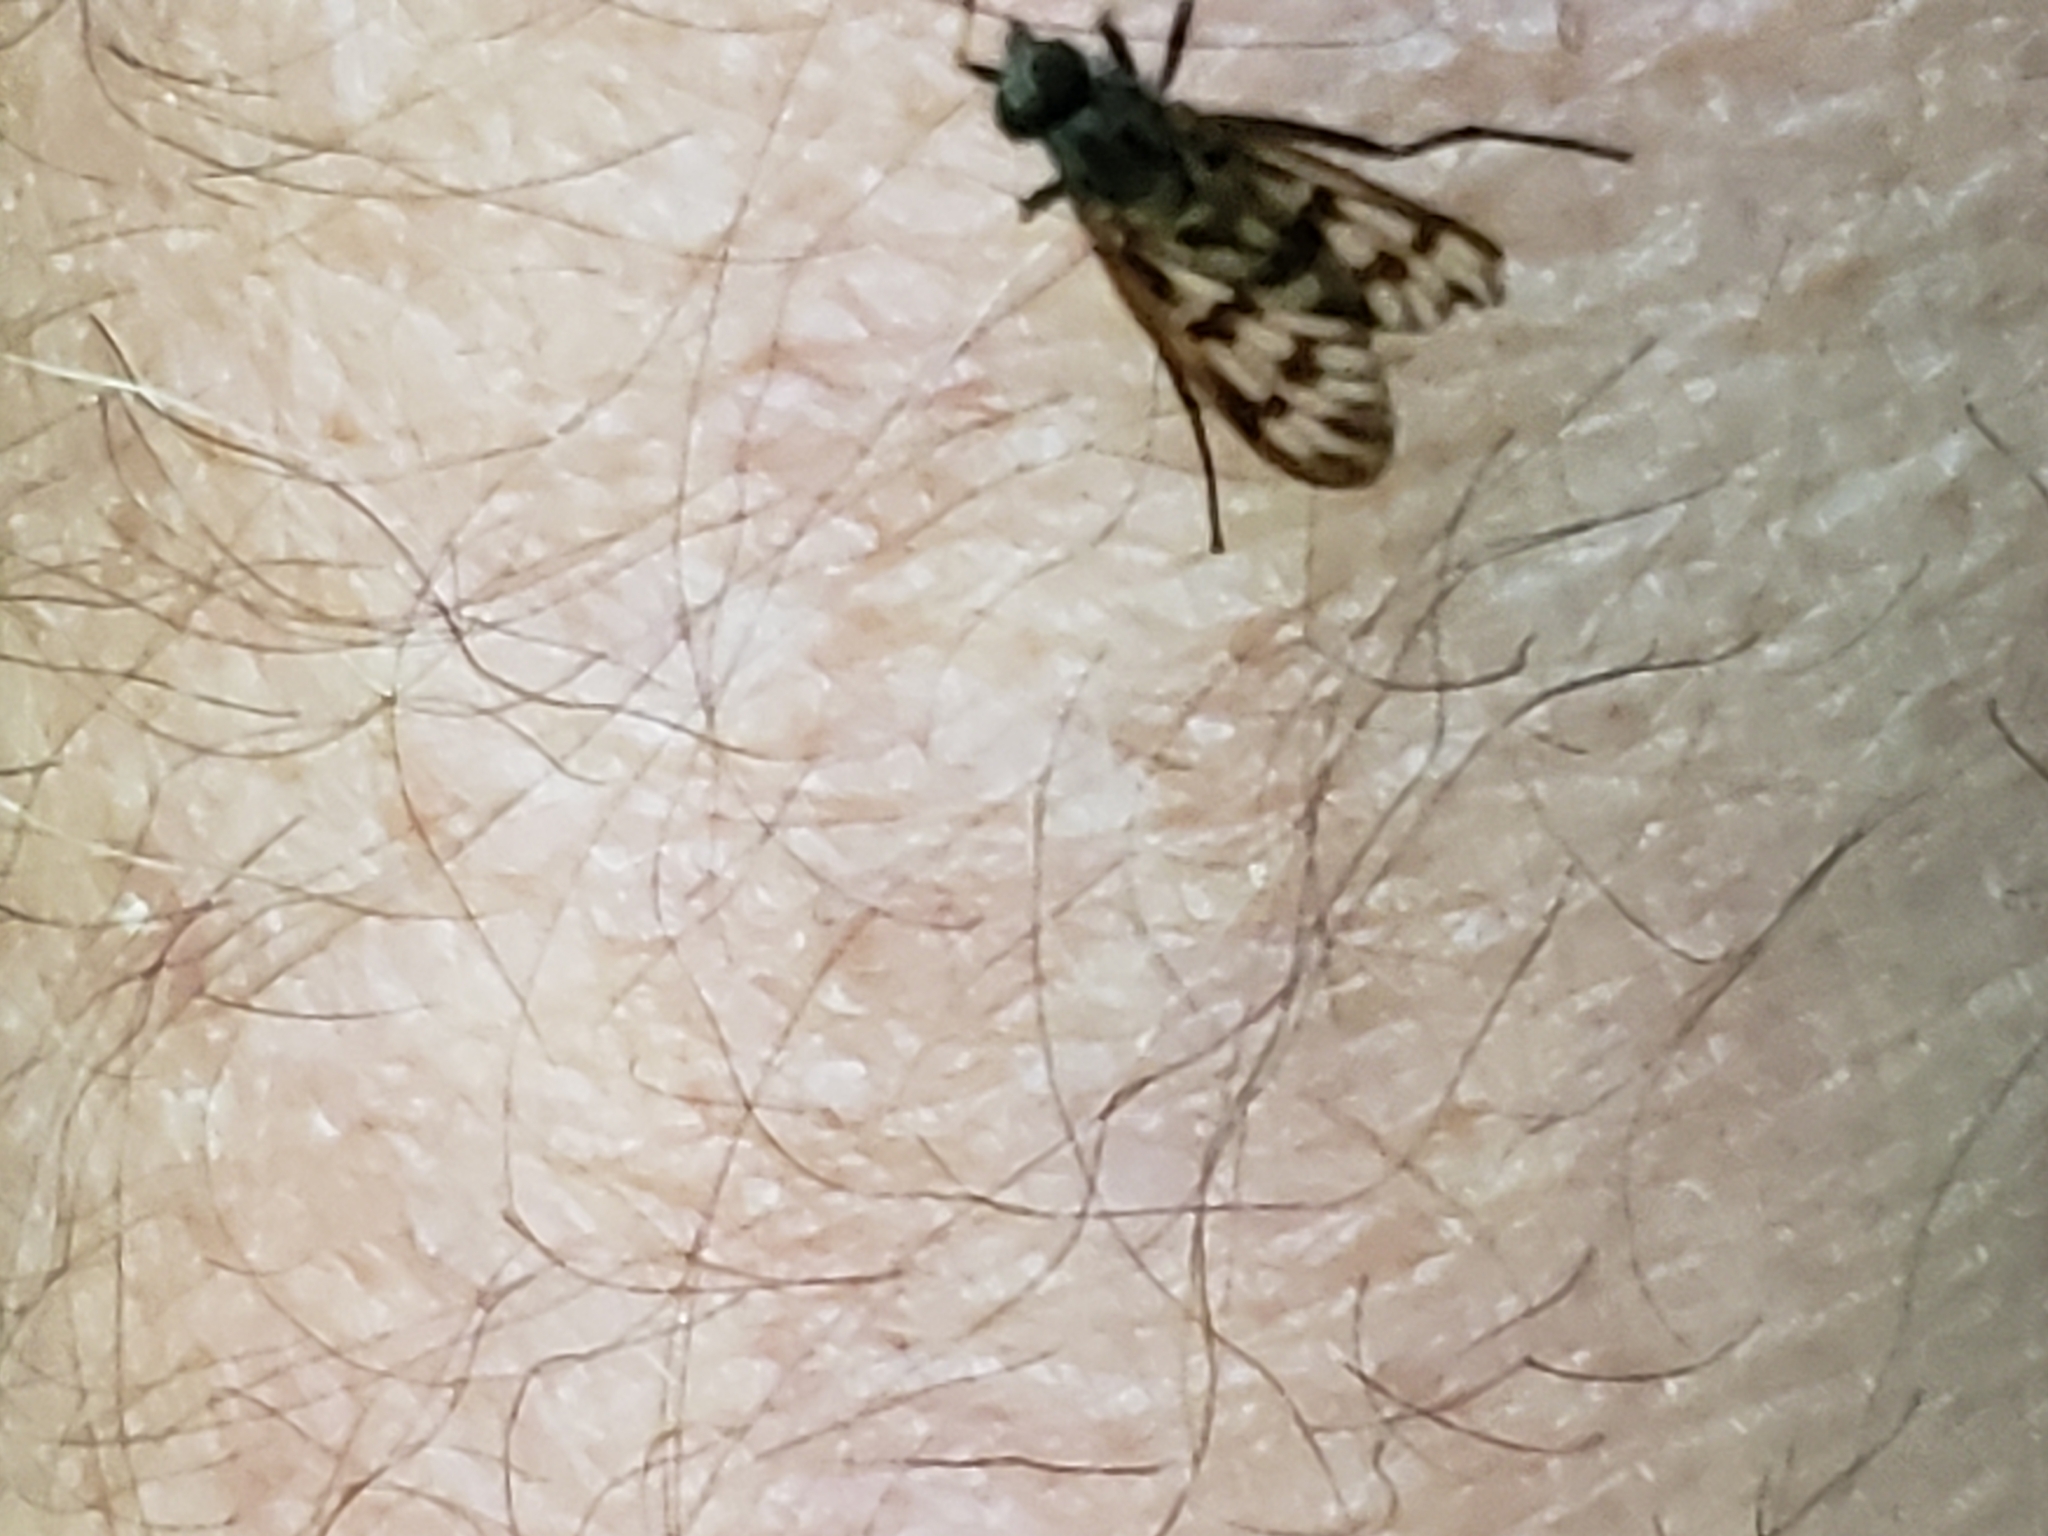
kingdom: Animalia
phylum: Arthropoda
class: Insecta
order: Diptera
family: Rhagionidae
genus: Rhagio
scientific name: Rhagio mystaceus
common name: Common snipe fly
